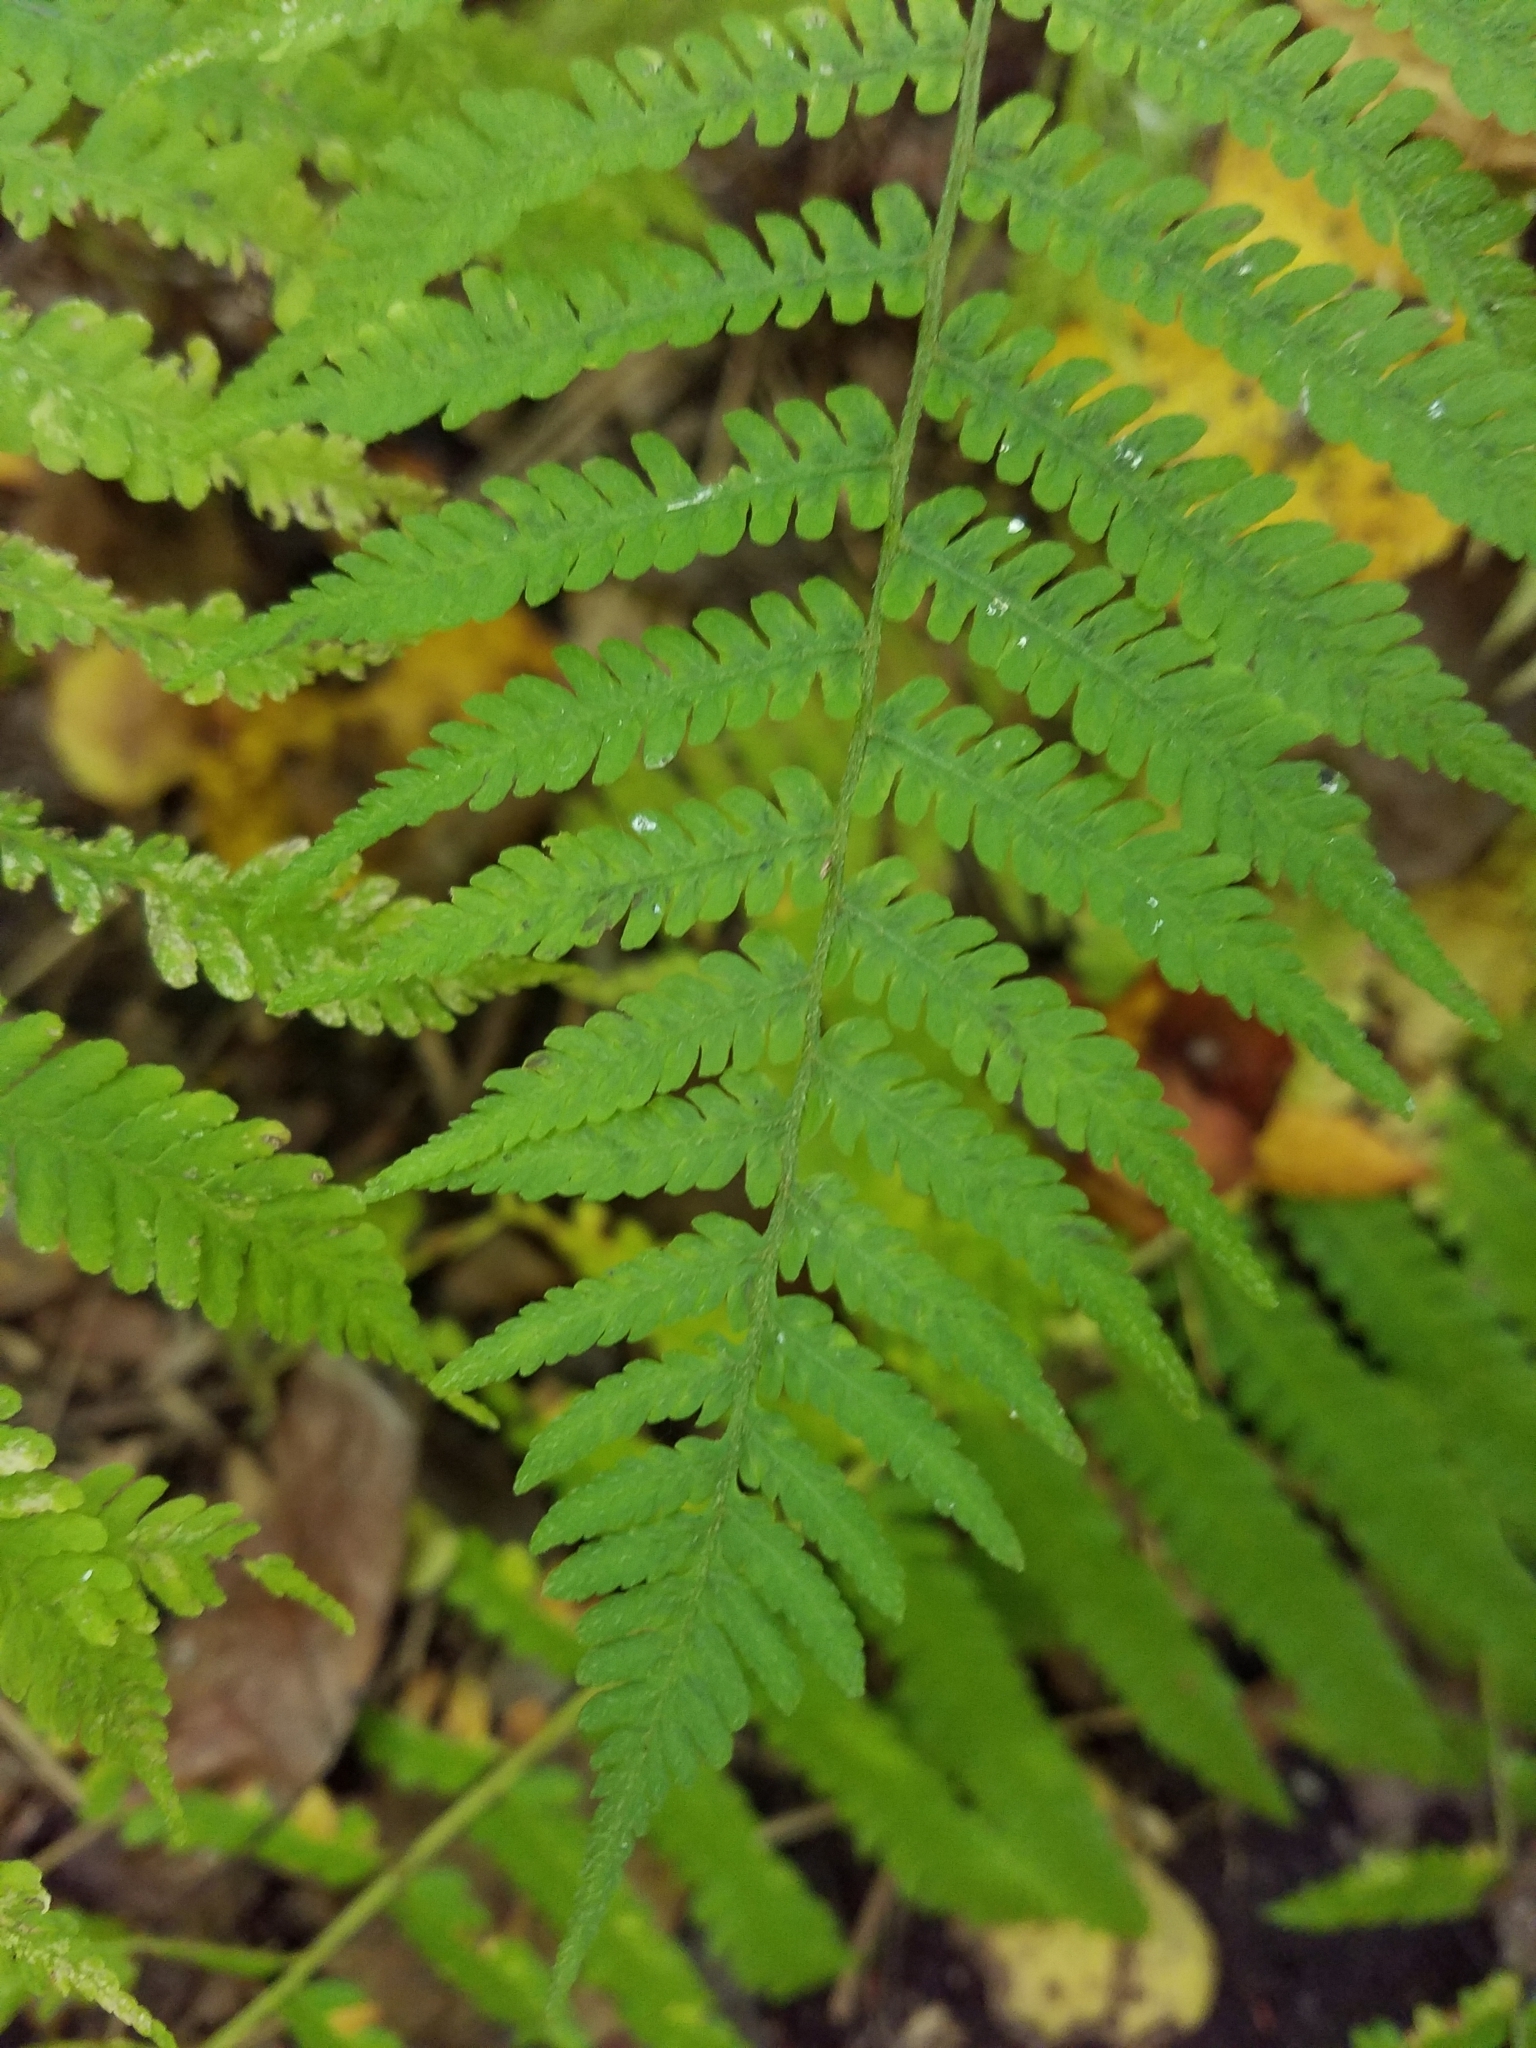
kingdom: Plantae
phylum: Tracheophyta
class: Polypodiopsida
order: Polypodiales
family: Athyriaceae
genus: Deparia
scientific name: Deparia acrostichoides
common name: Silver false spleenwort
